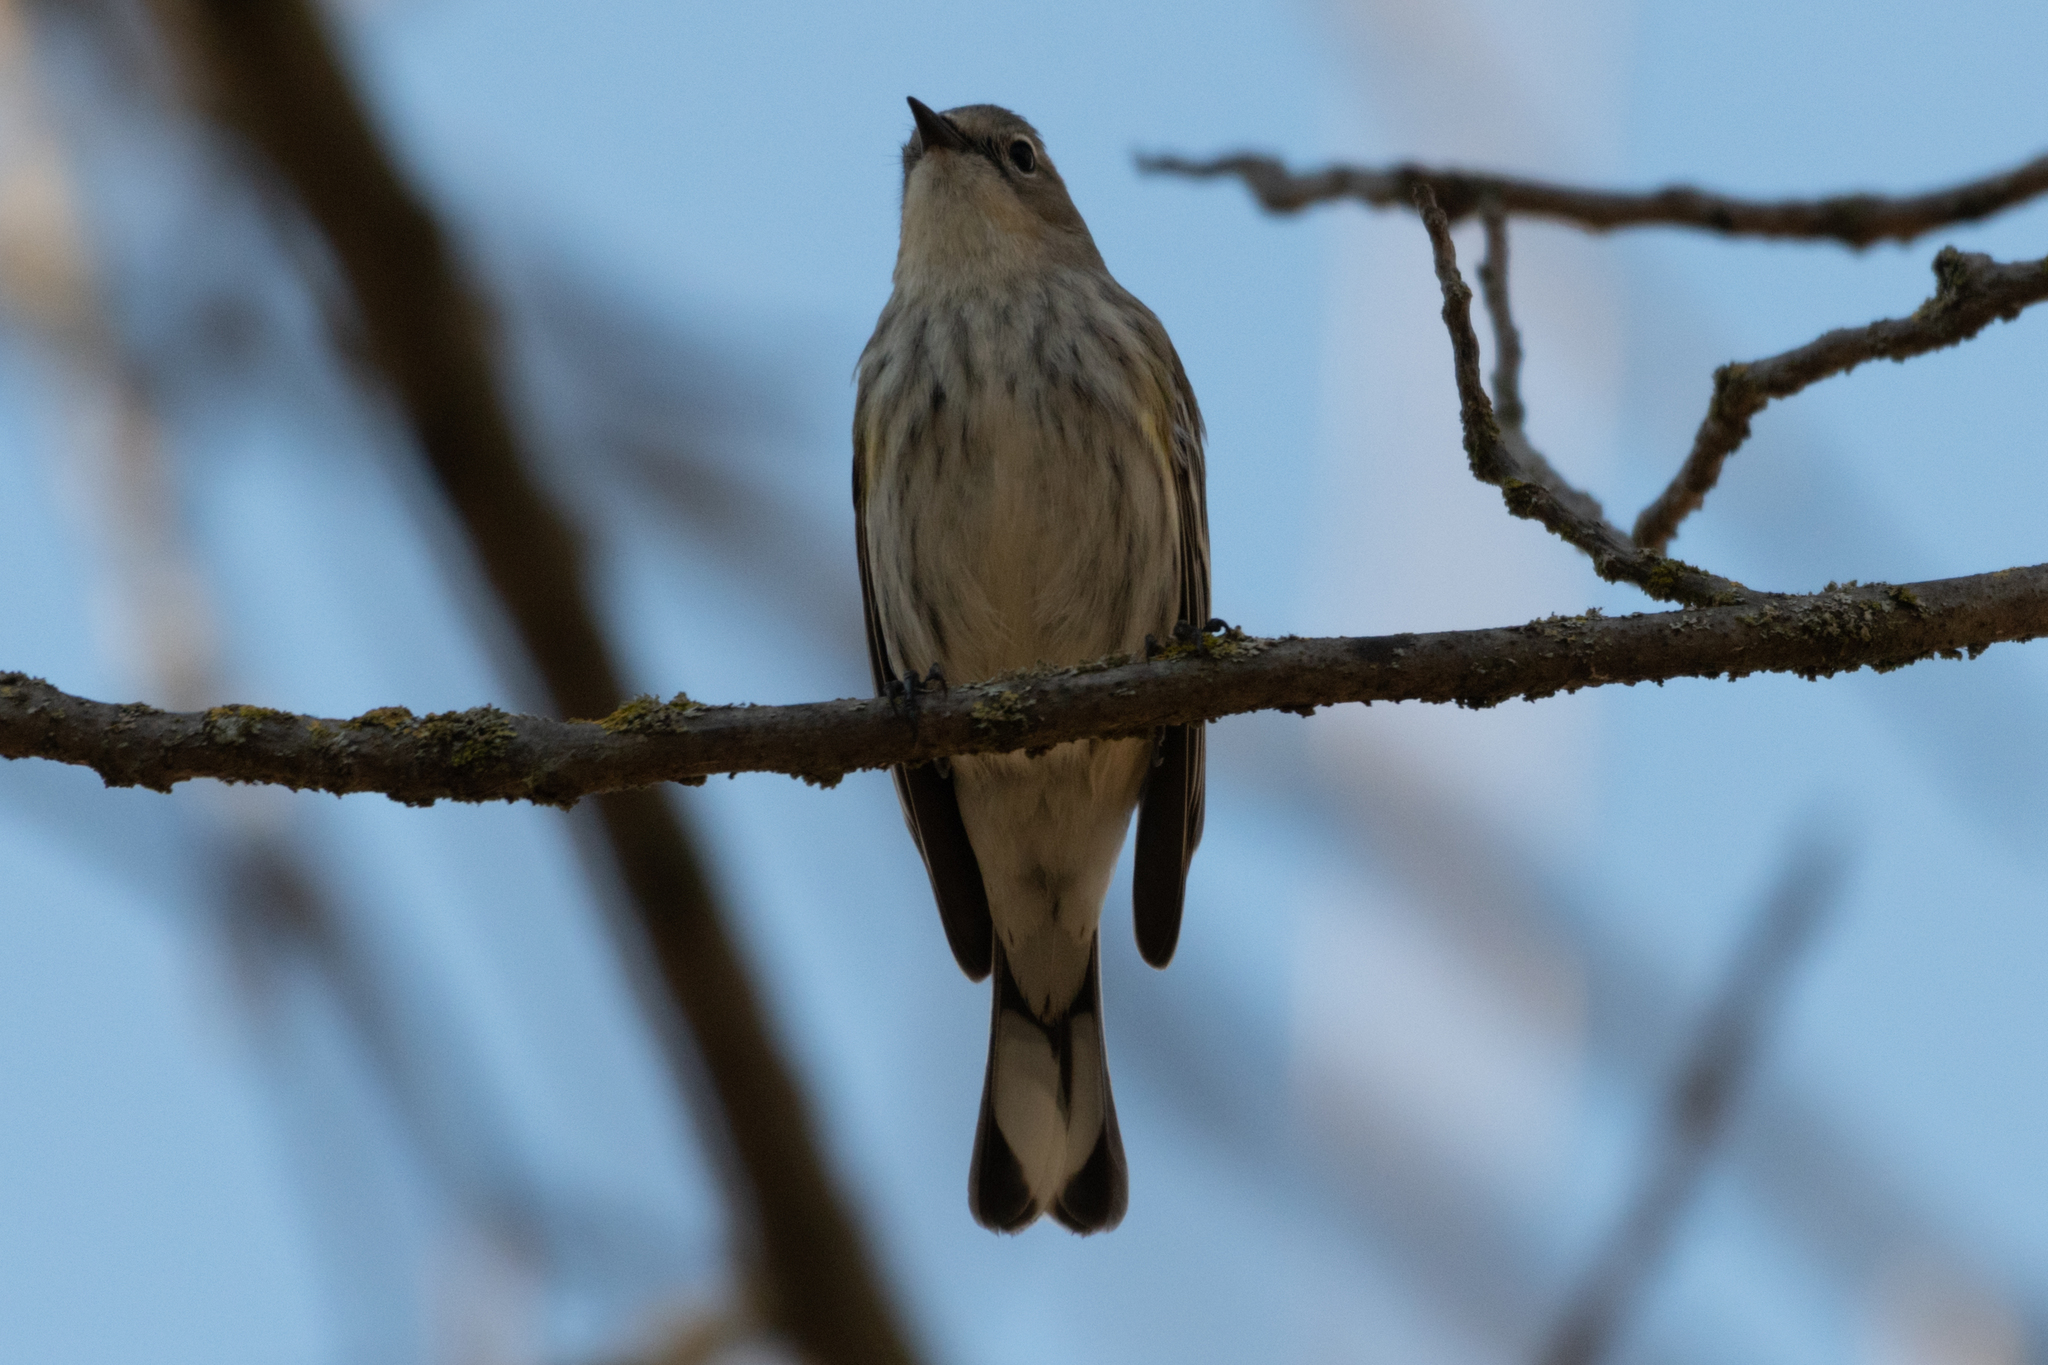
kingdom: Animalia
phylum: Chordata
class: Aves
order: Passeriformes
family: Parulidae
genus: Setophaga
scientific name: Setophaga coronata
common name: Myrtle warbler
